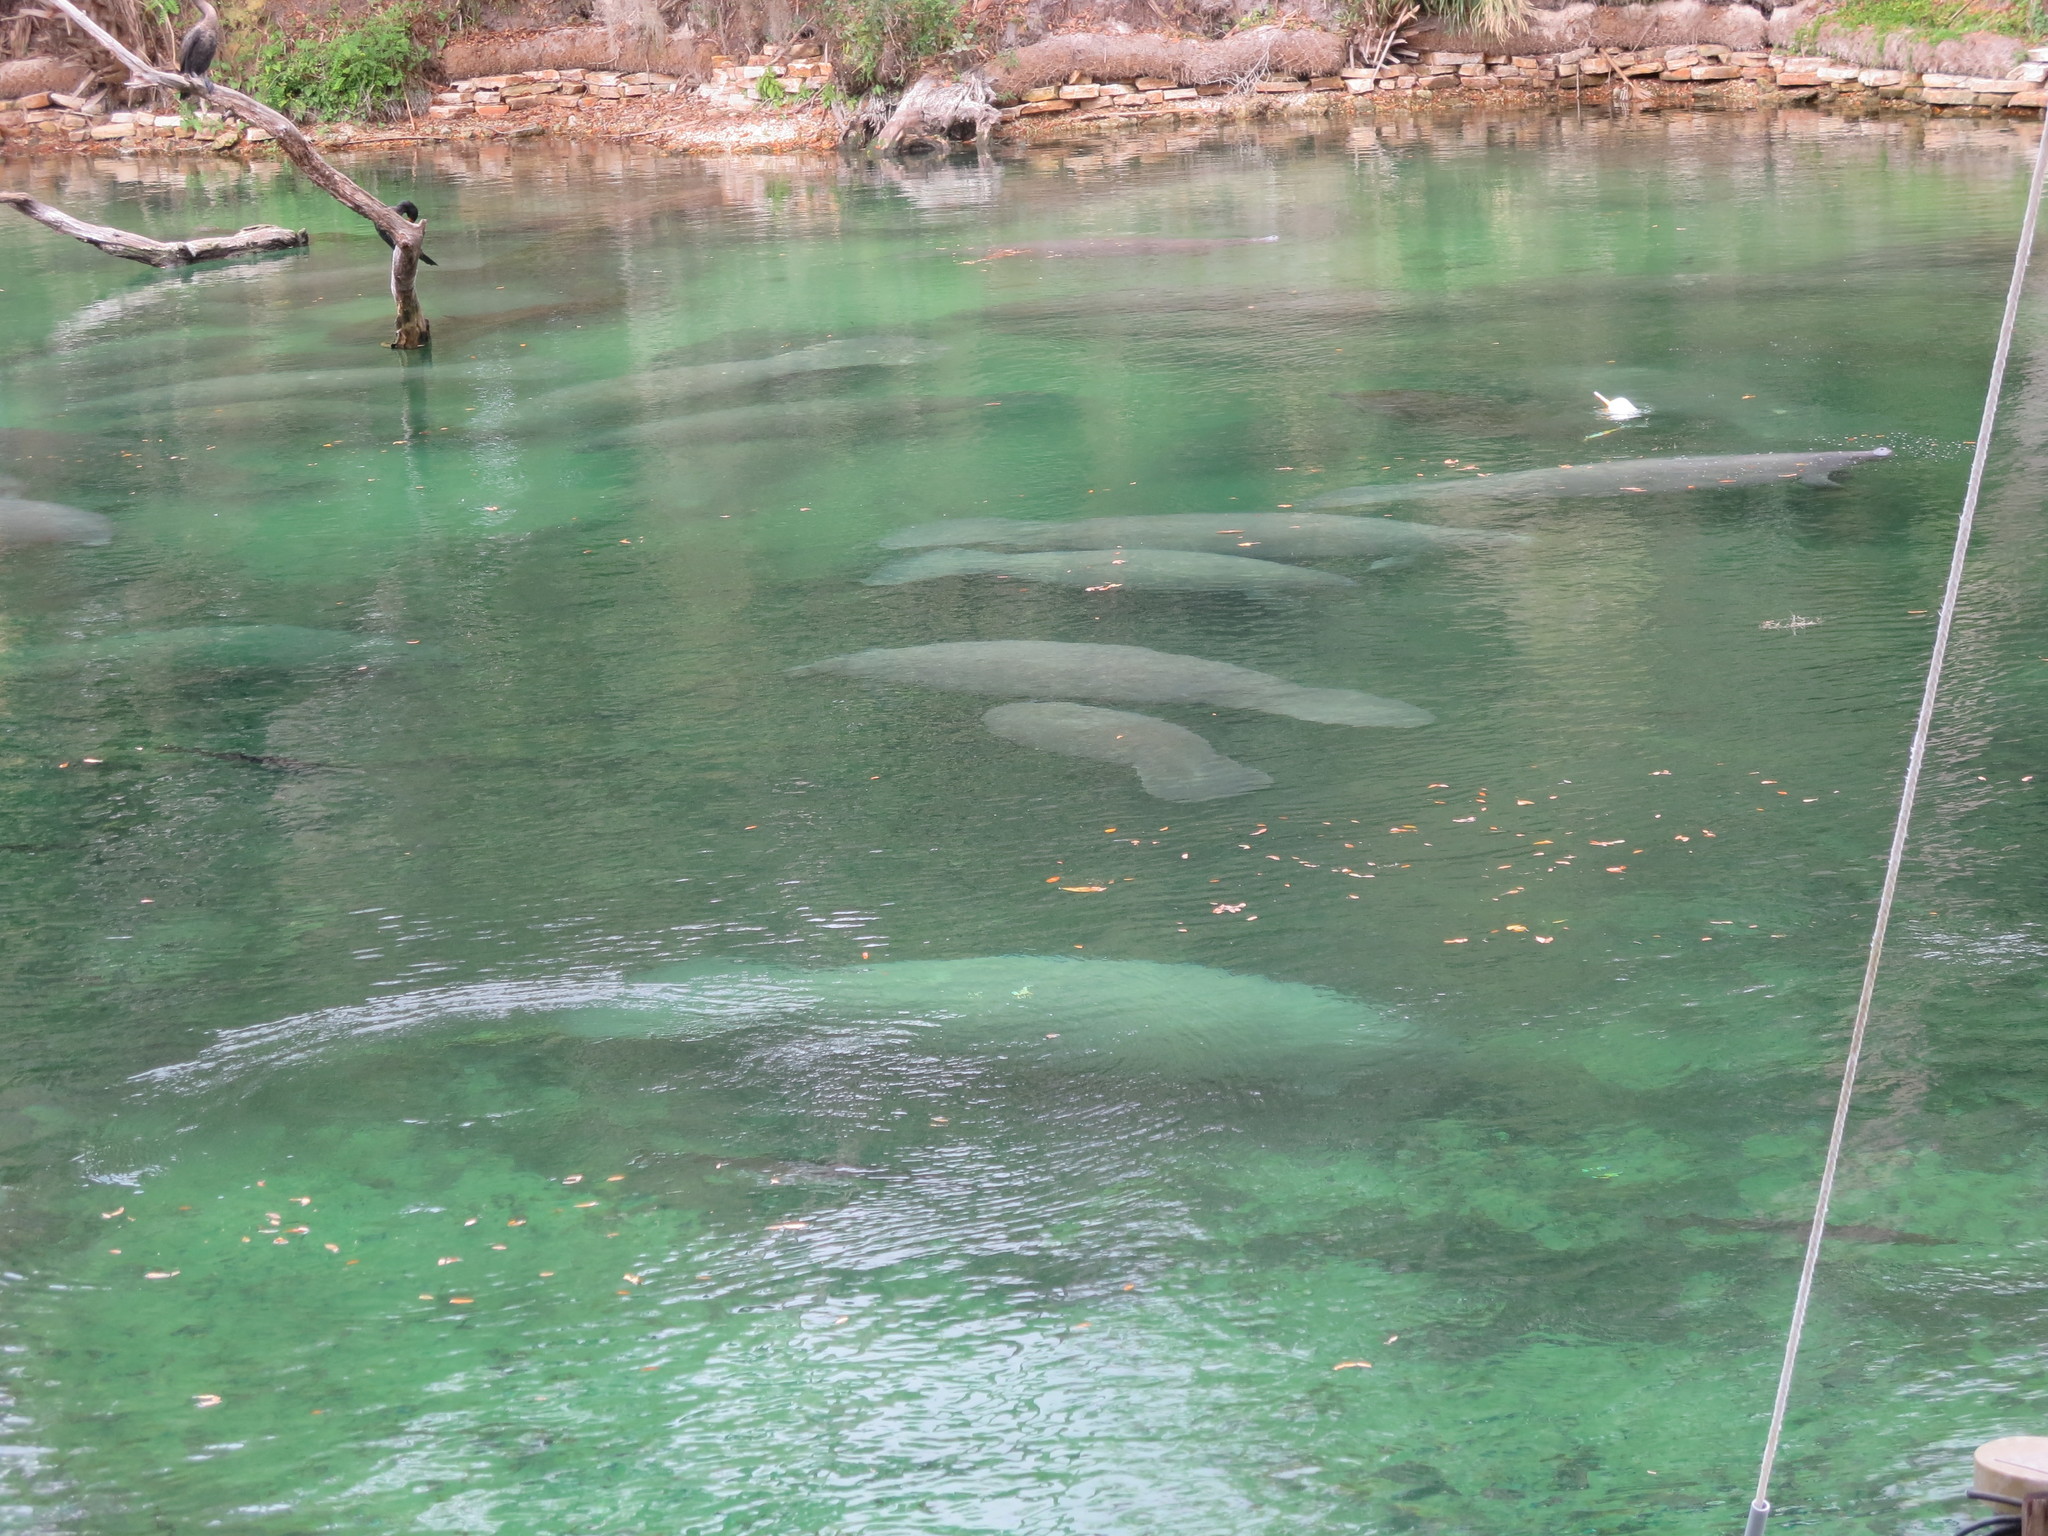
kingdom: Animalia
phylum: Chordata
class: Mammalia
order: Sirenia
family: Trichechidae
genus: Trichechus
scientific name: Trichechus manatus
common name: West indian manatee
